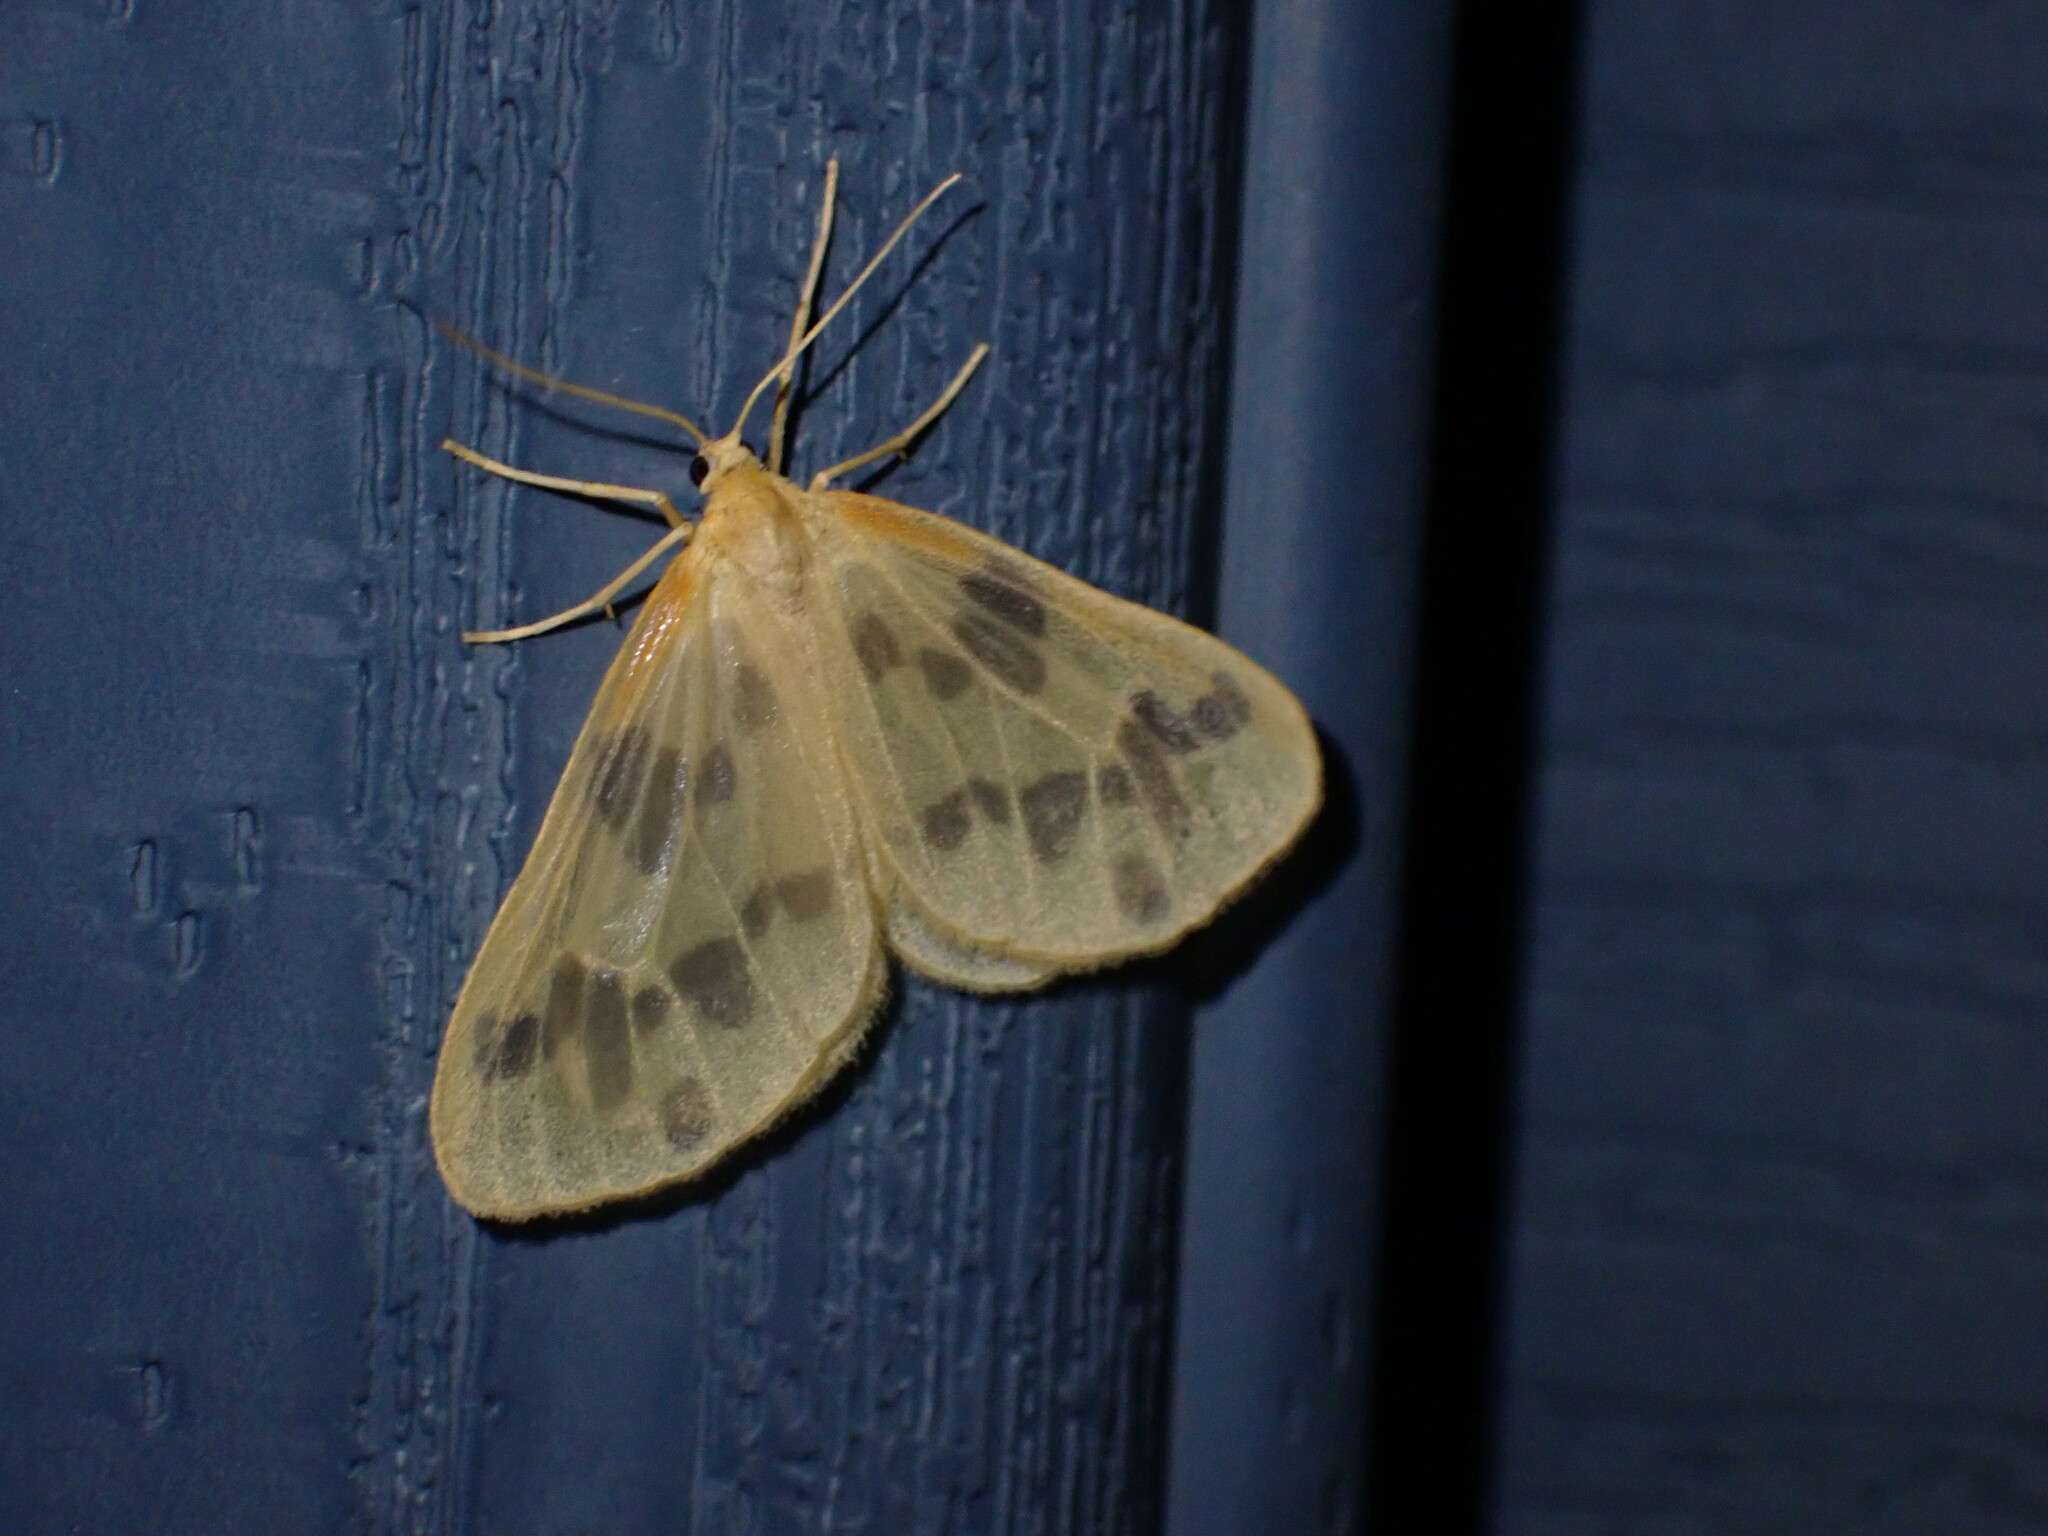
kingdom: Animalia
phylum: Arthropoda
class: Insecta
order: Lepidoptera
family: Geometridae
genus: Eubaphe
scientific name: Eubaphe mendica
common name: Beggar
